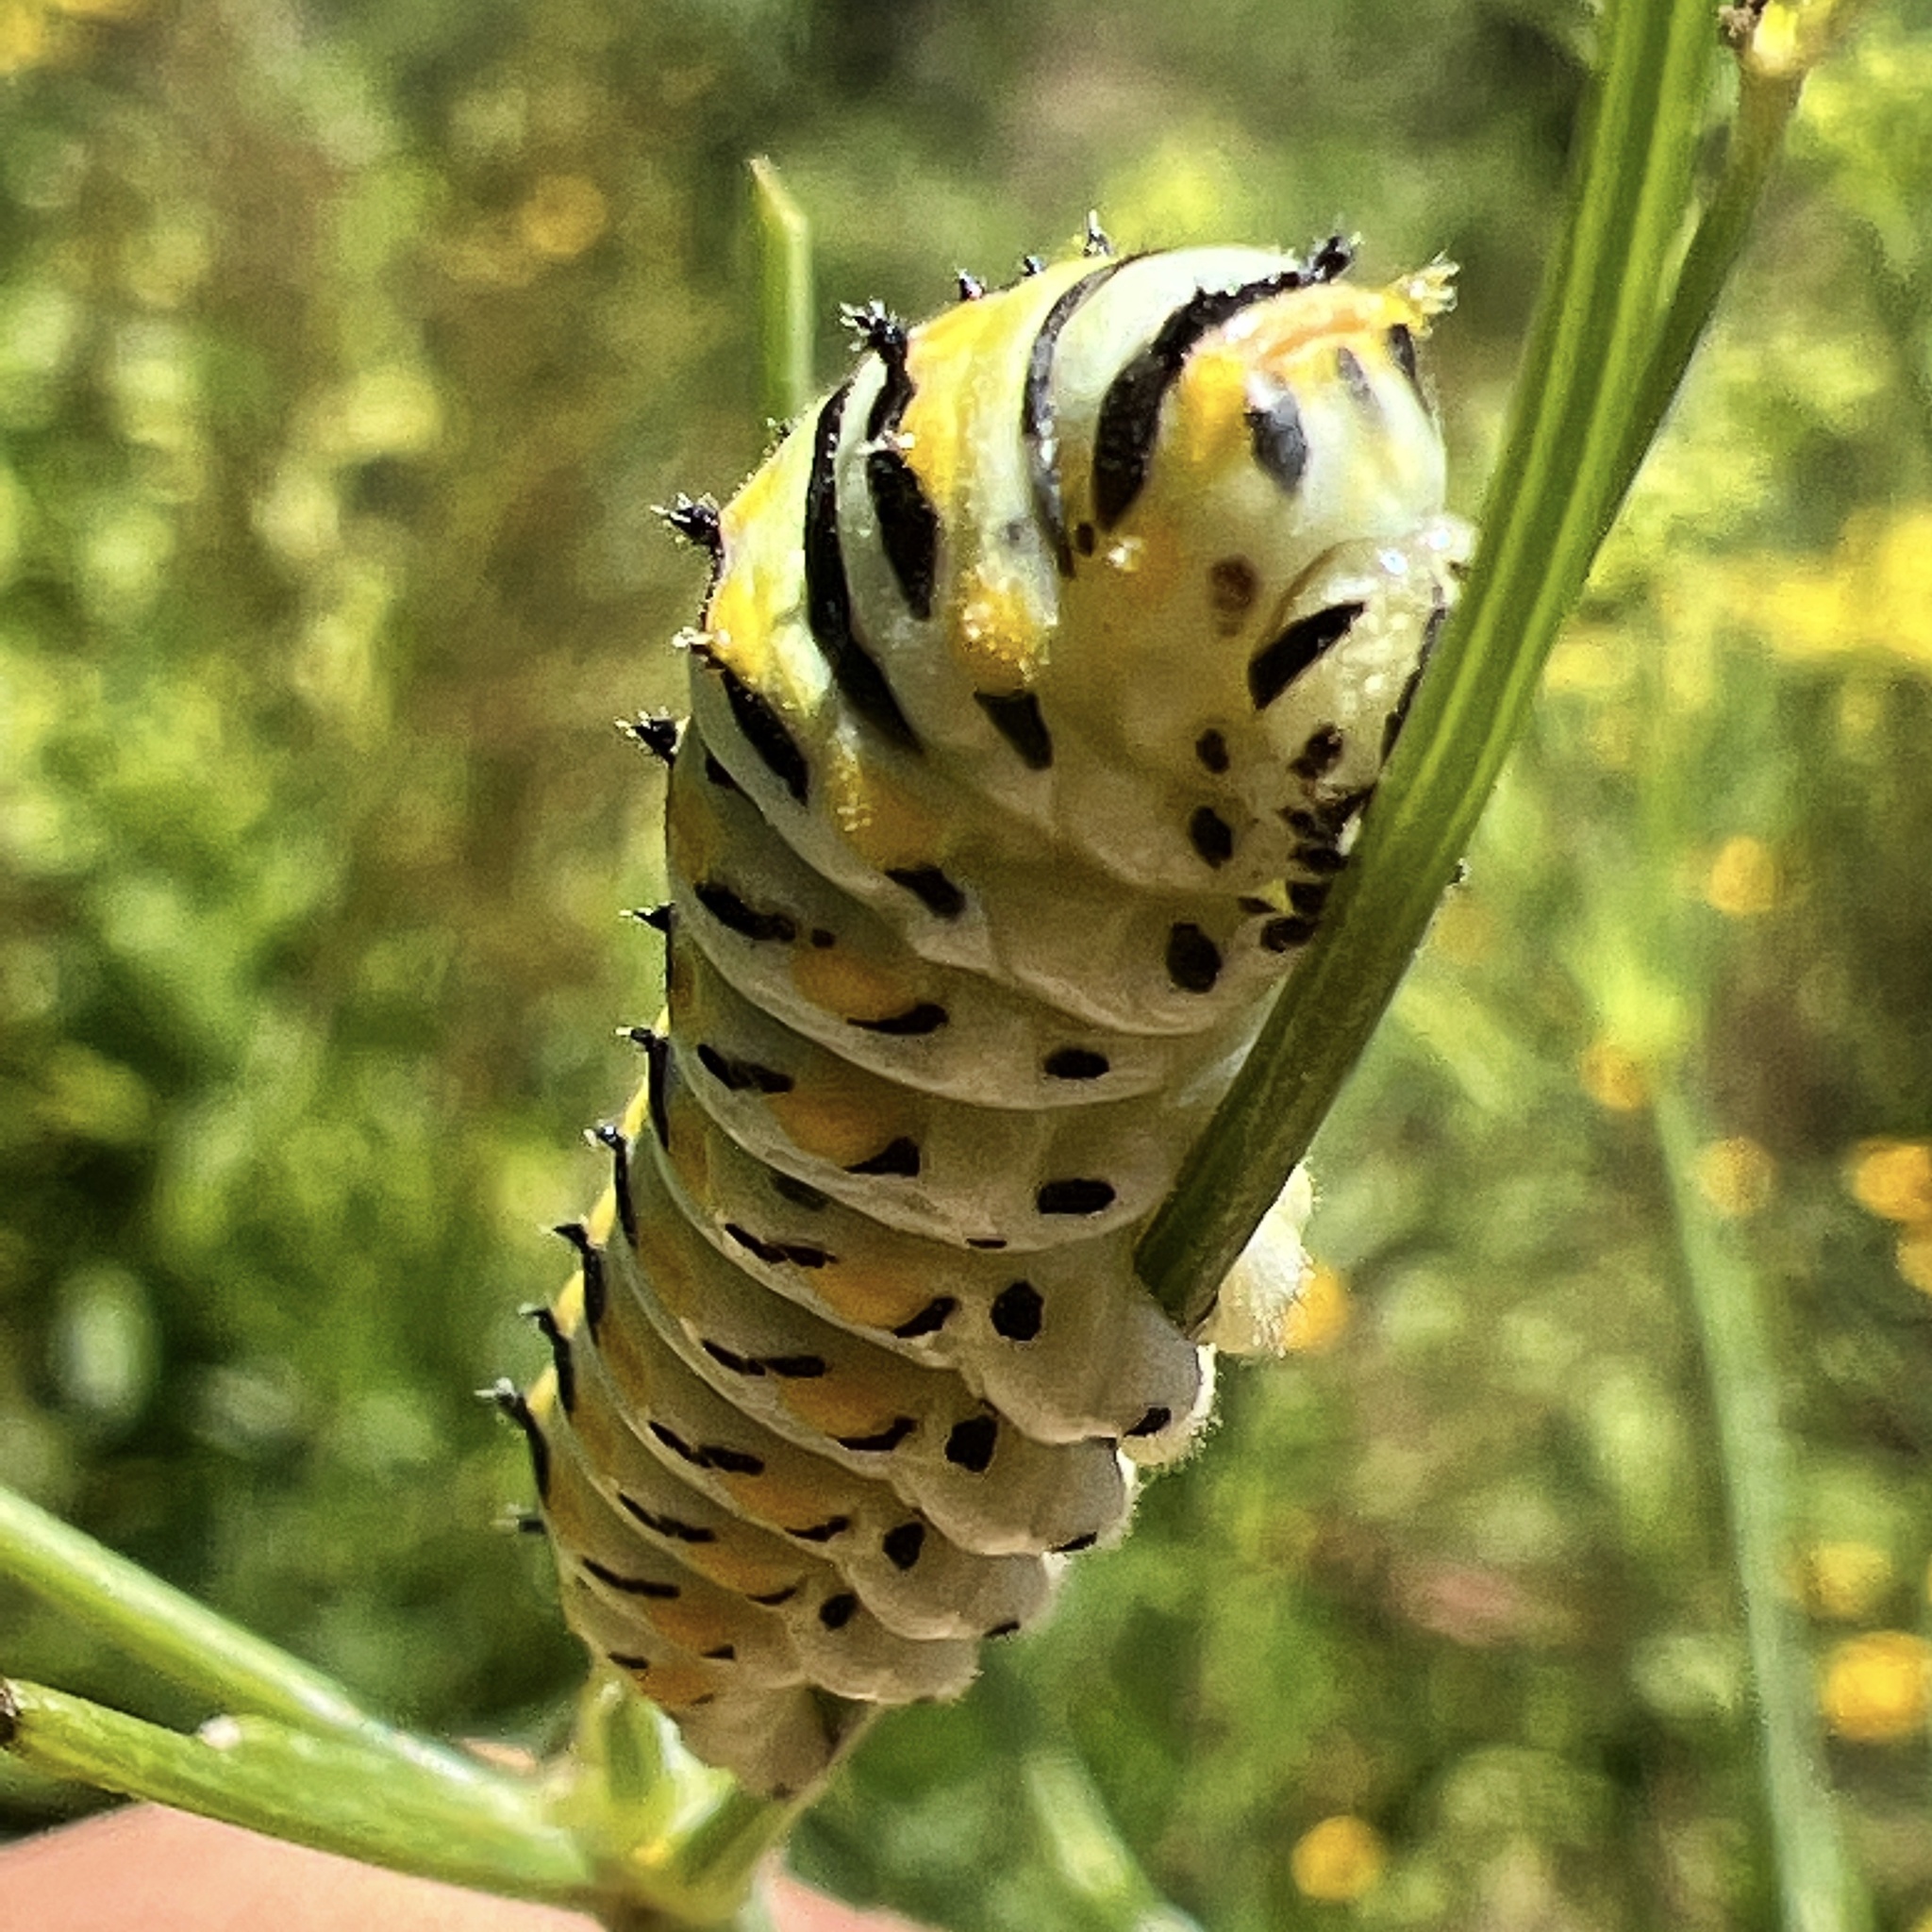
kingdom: Animalia
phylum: Arthropoda
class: Insecta
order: Lepidoptera
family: Papilionidae
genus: Papilio
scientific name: Papilio polyxenes
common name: Black swallowtail
